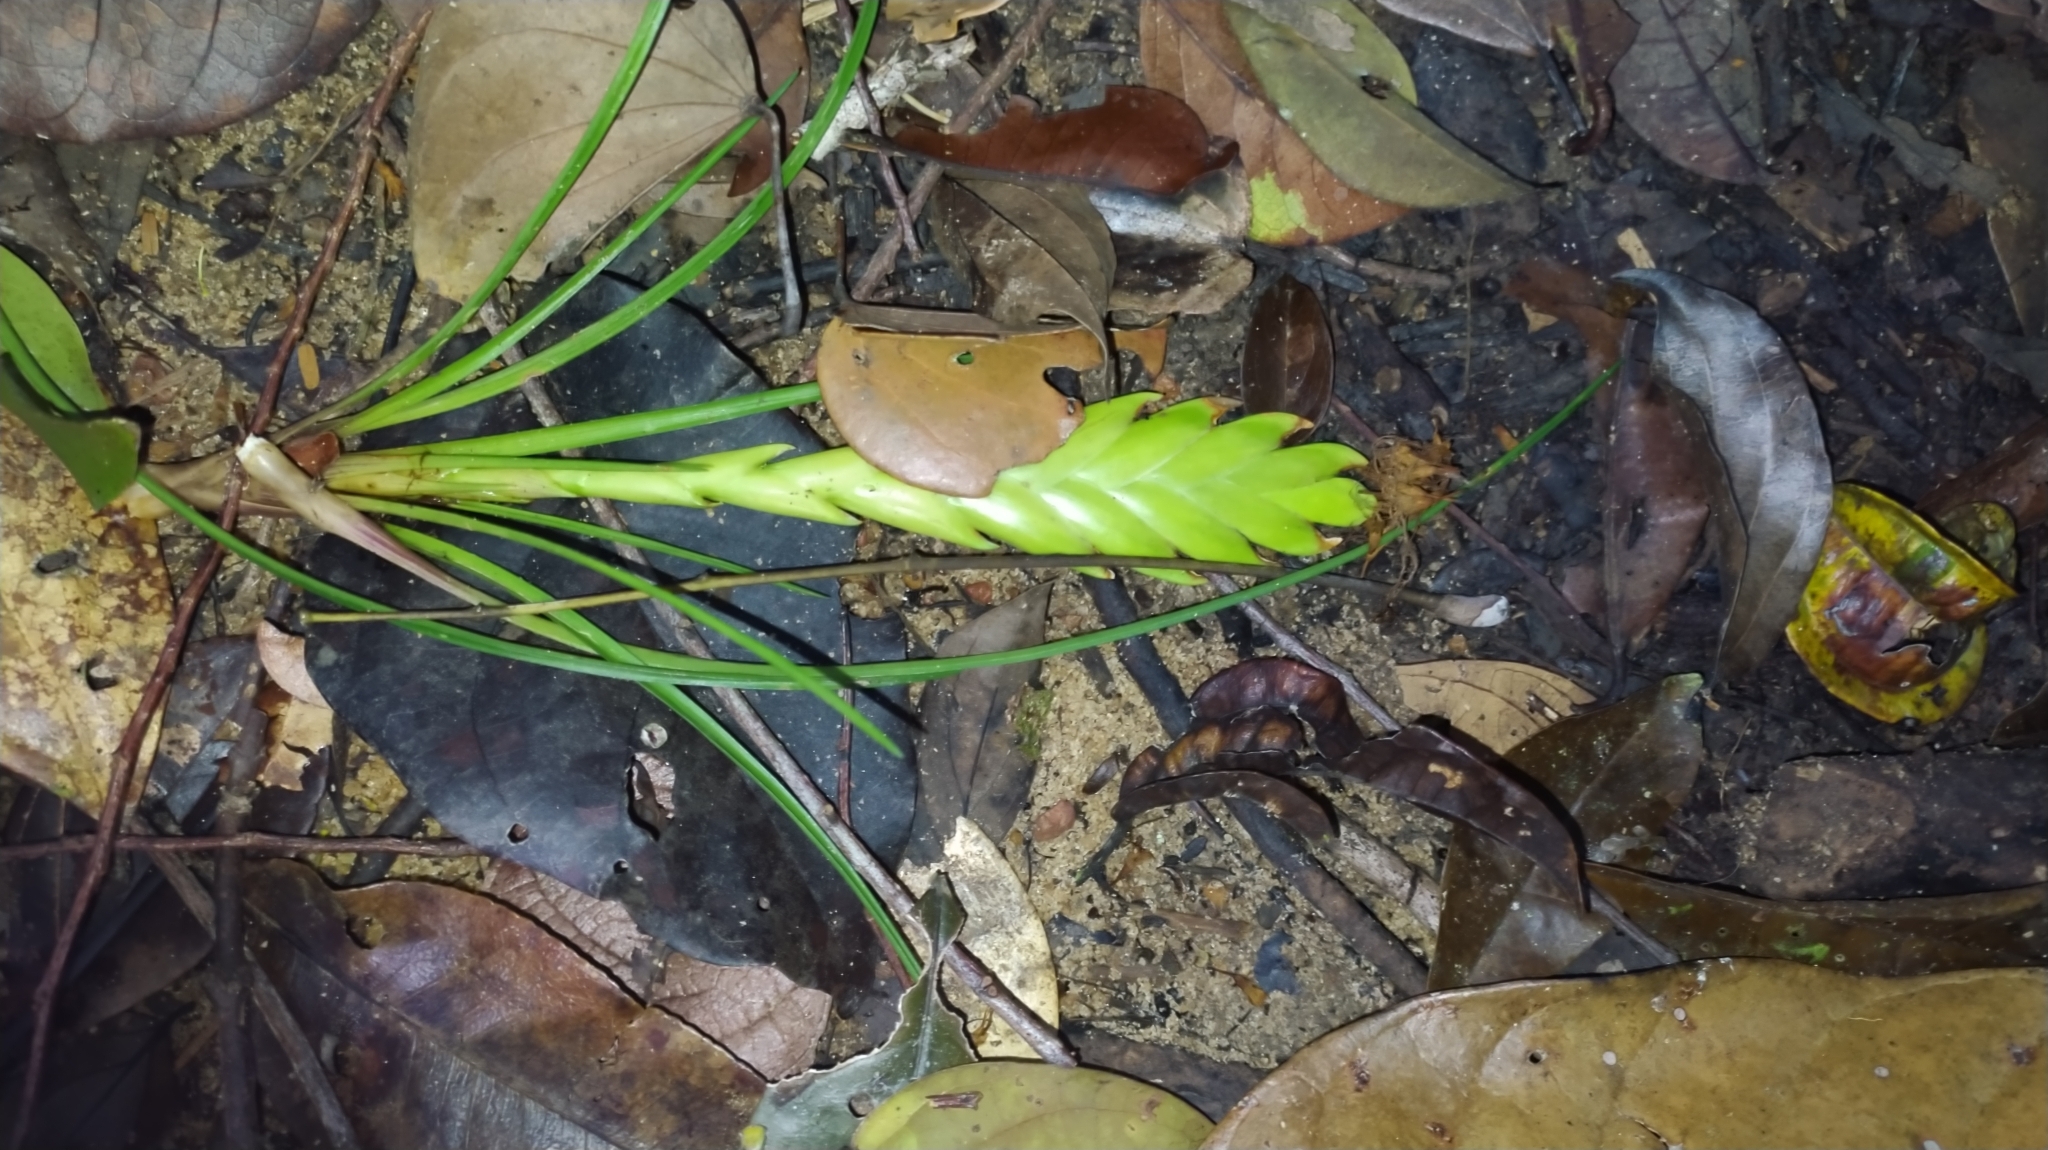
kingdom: Plantae
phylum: Tracheophyta
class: Liliopsida
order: Poales
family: Bromeliaceae
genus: Wallisia
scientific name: Wallisia anceps
